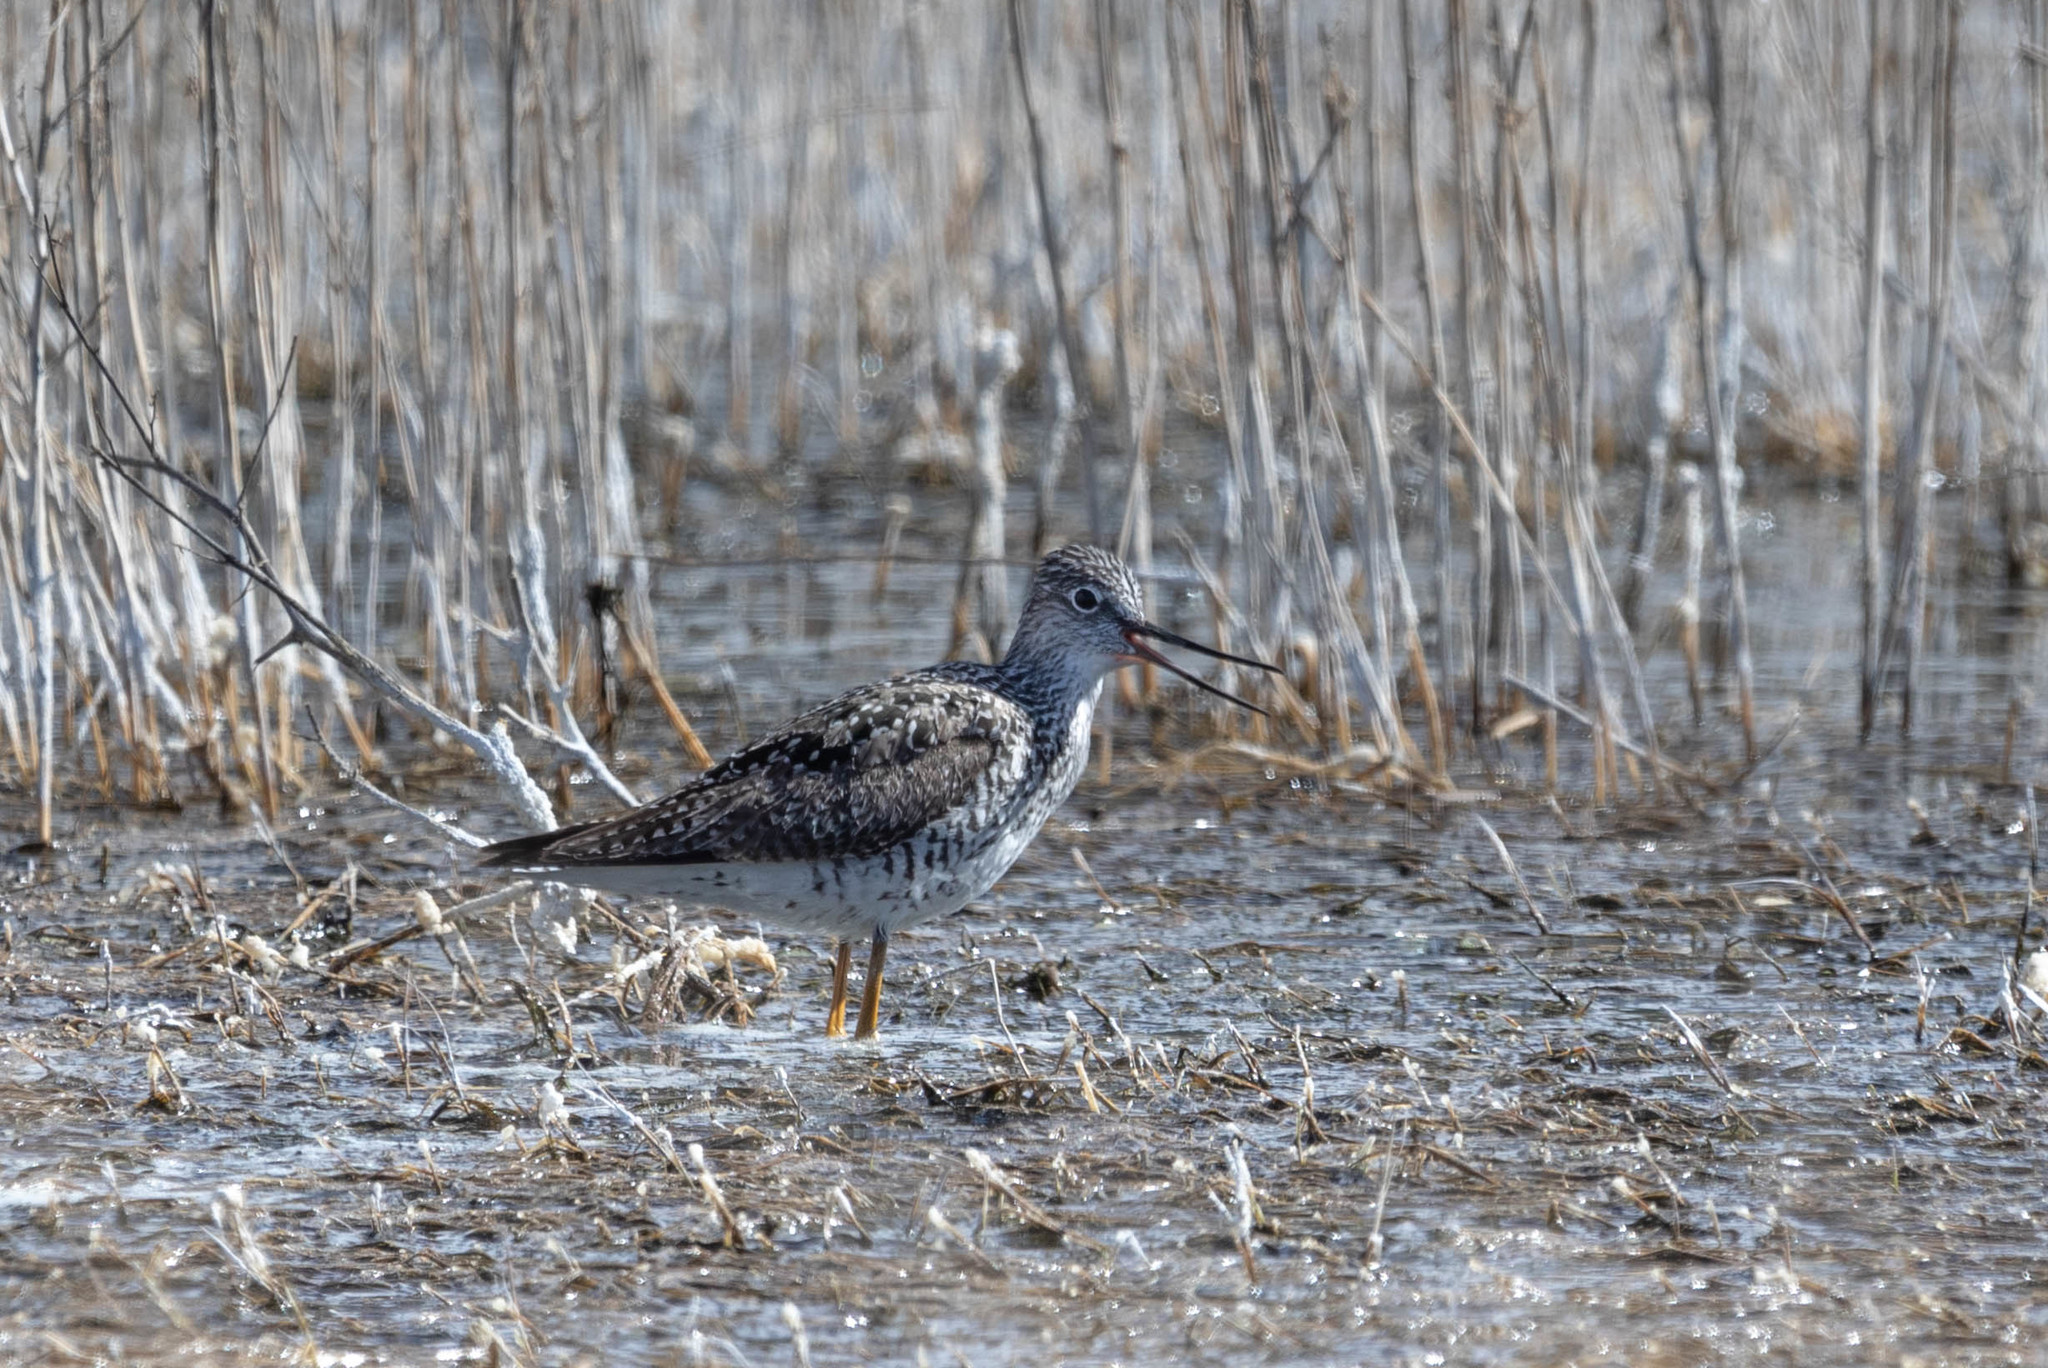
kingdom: Animalia
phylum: Chordata
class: Aves
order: Charadriiformes
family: Scolopacidae
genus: Tringa
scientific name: Tringa melanoleuca
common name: Greater yellowlegs
